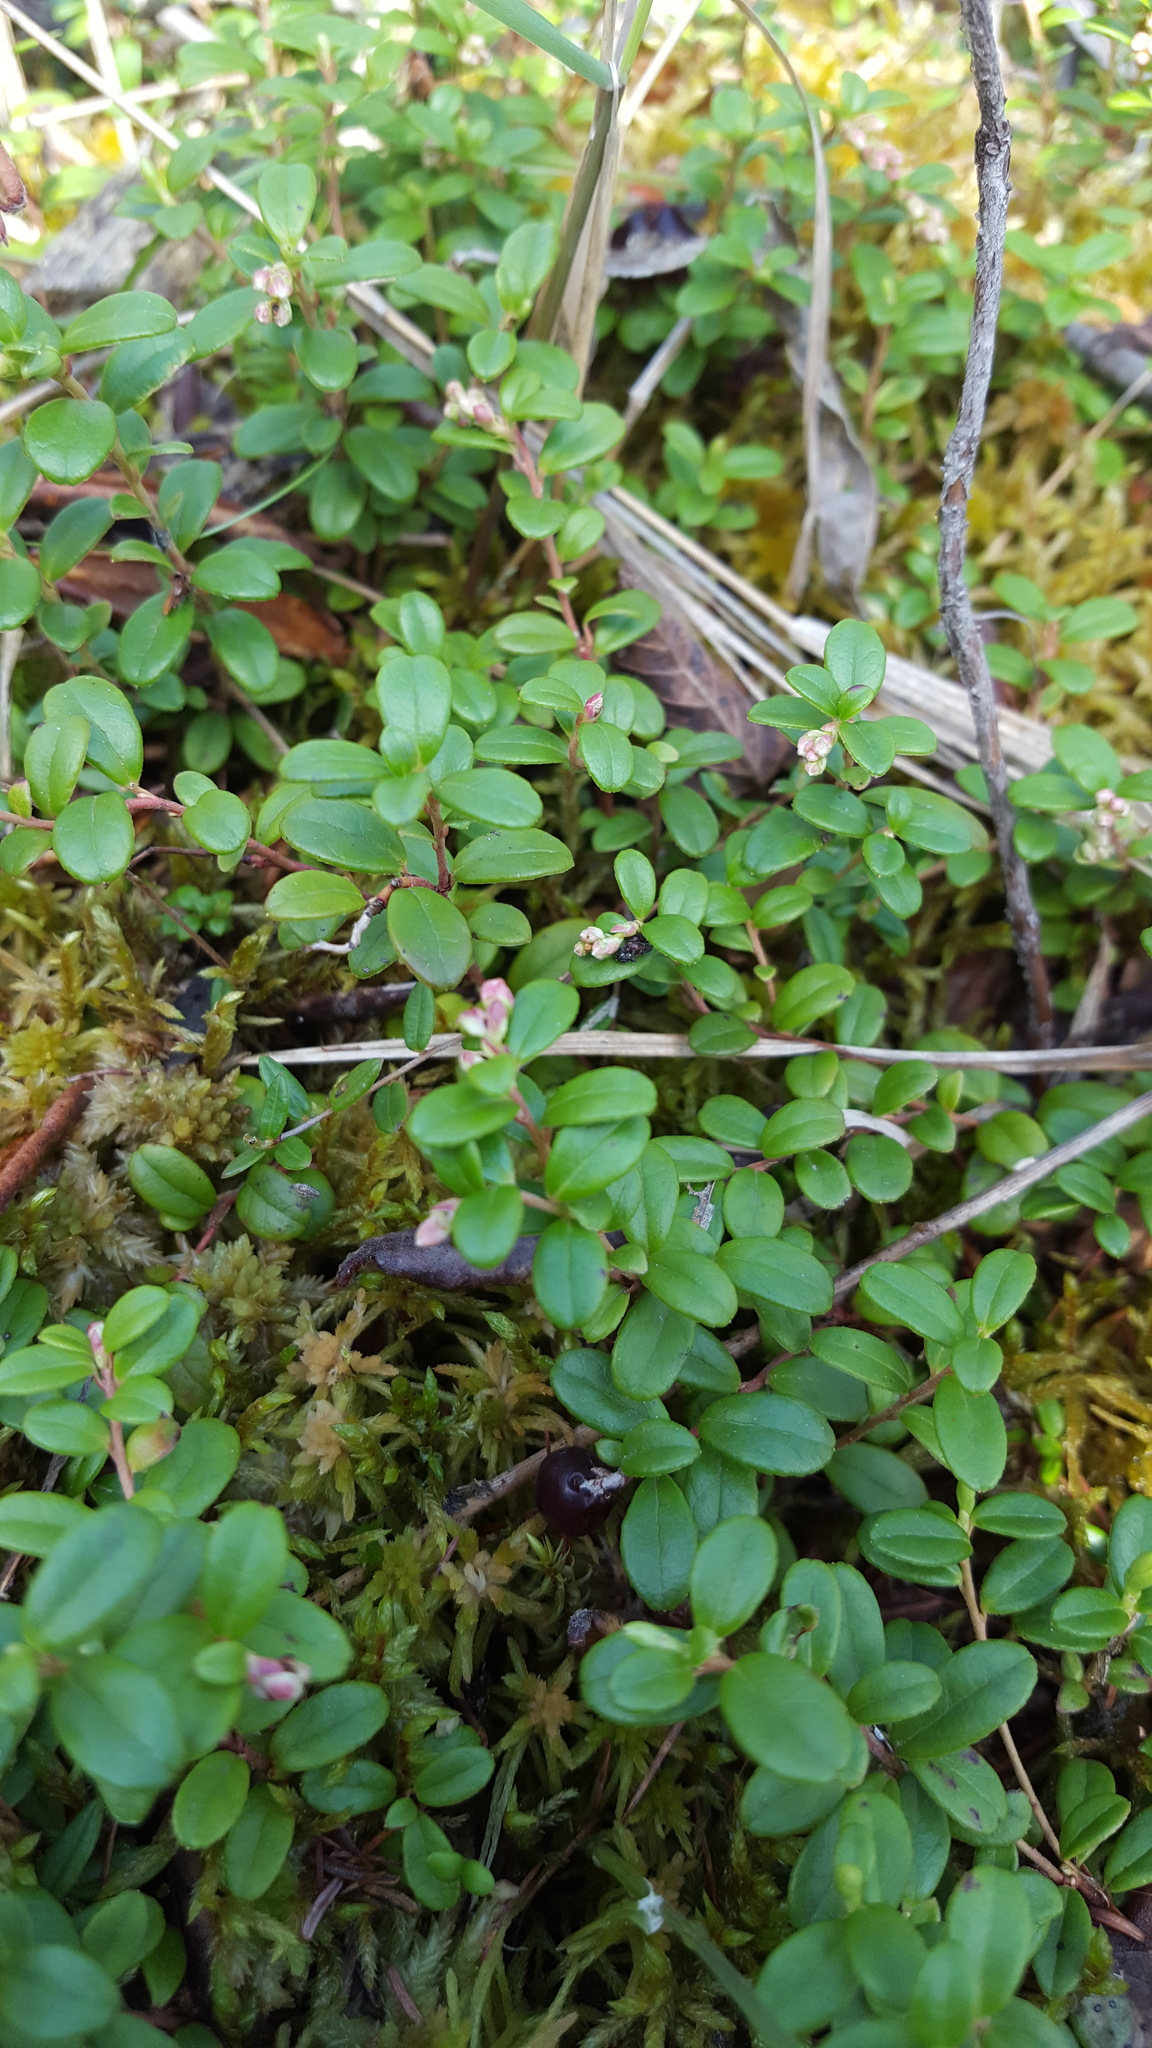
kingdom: Plantae
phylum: Tracheophyta
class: Magnoliopsida
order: Ericales
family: Ericaceae
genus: Vaccinium
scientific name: Vaccinium vitis-idaea
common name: Cowberry
